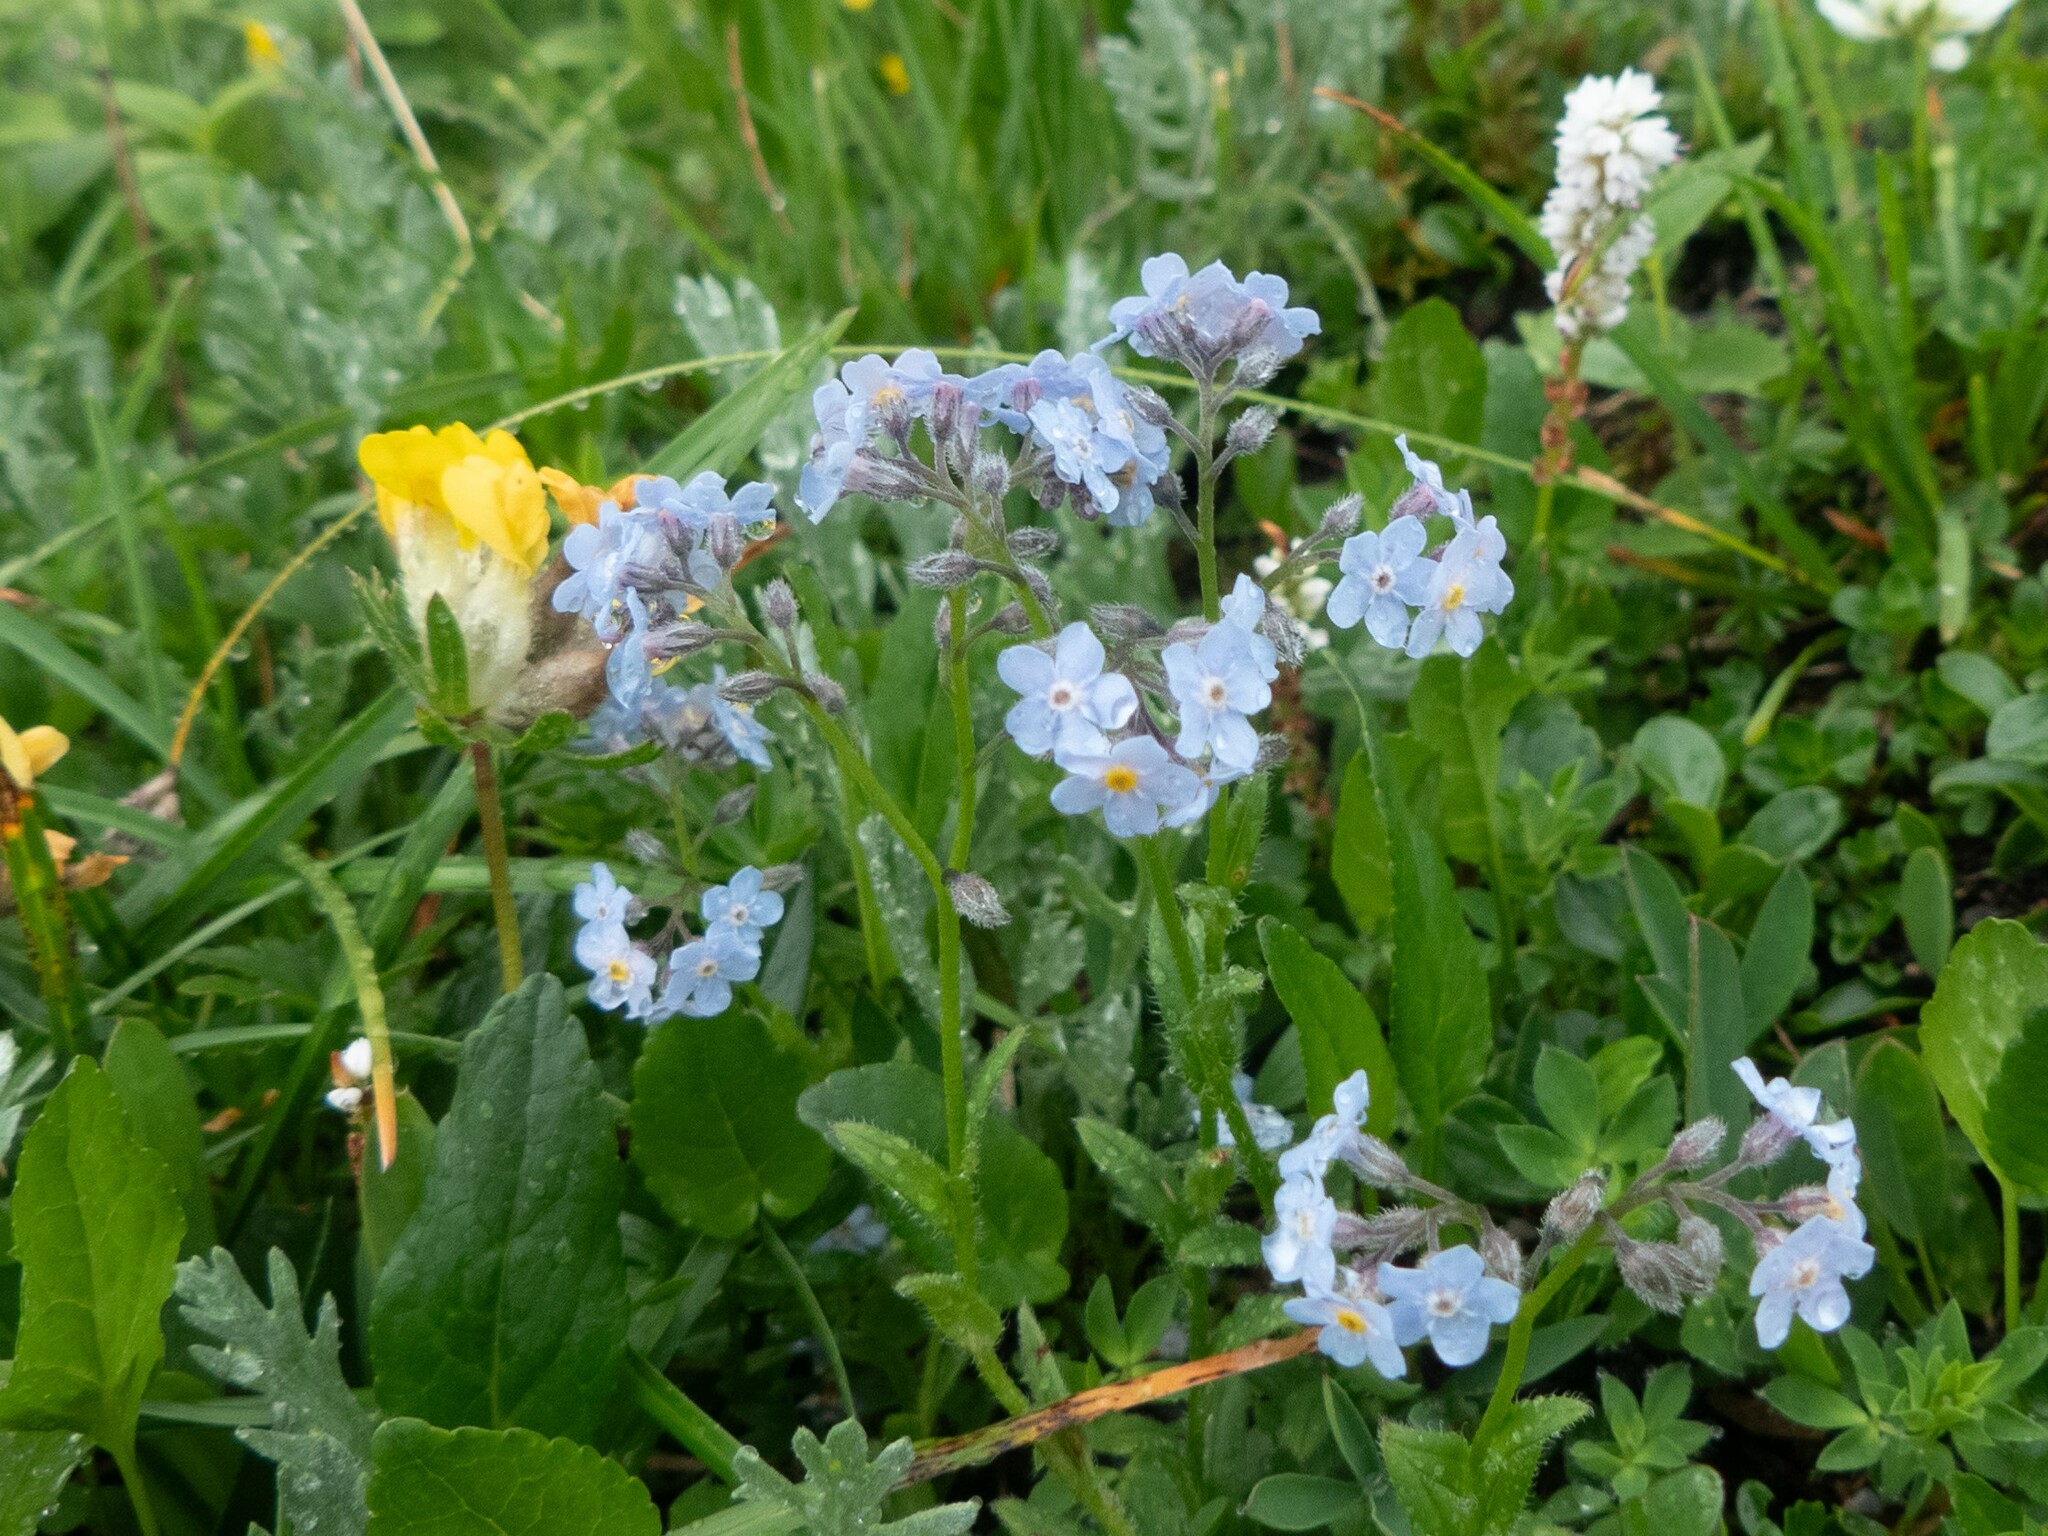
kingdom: Plantae
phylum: Tracheophyta
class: Magnoliopsida
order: Boraginales
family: Boraginaceae
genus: Myosotis
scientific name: Myosotis alpestris
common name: Alpine forget-me-not
